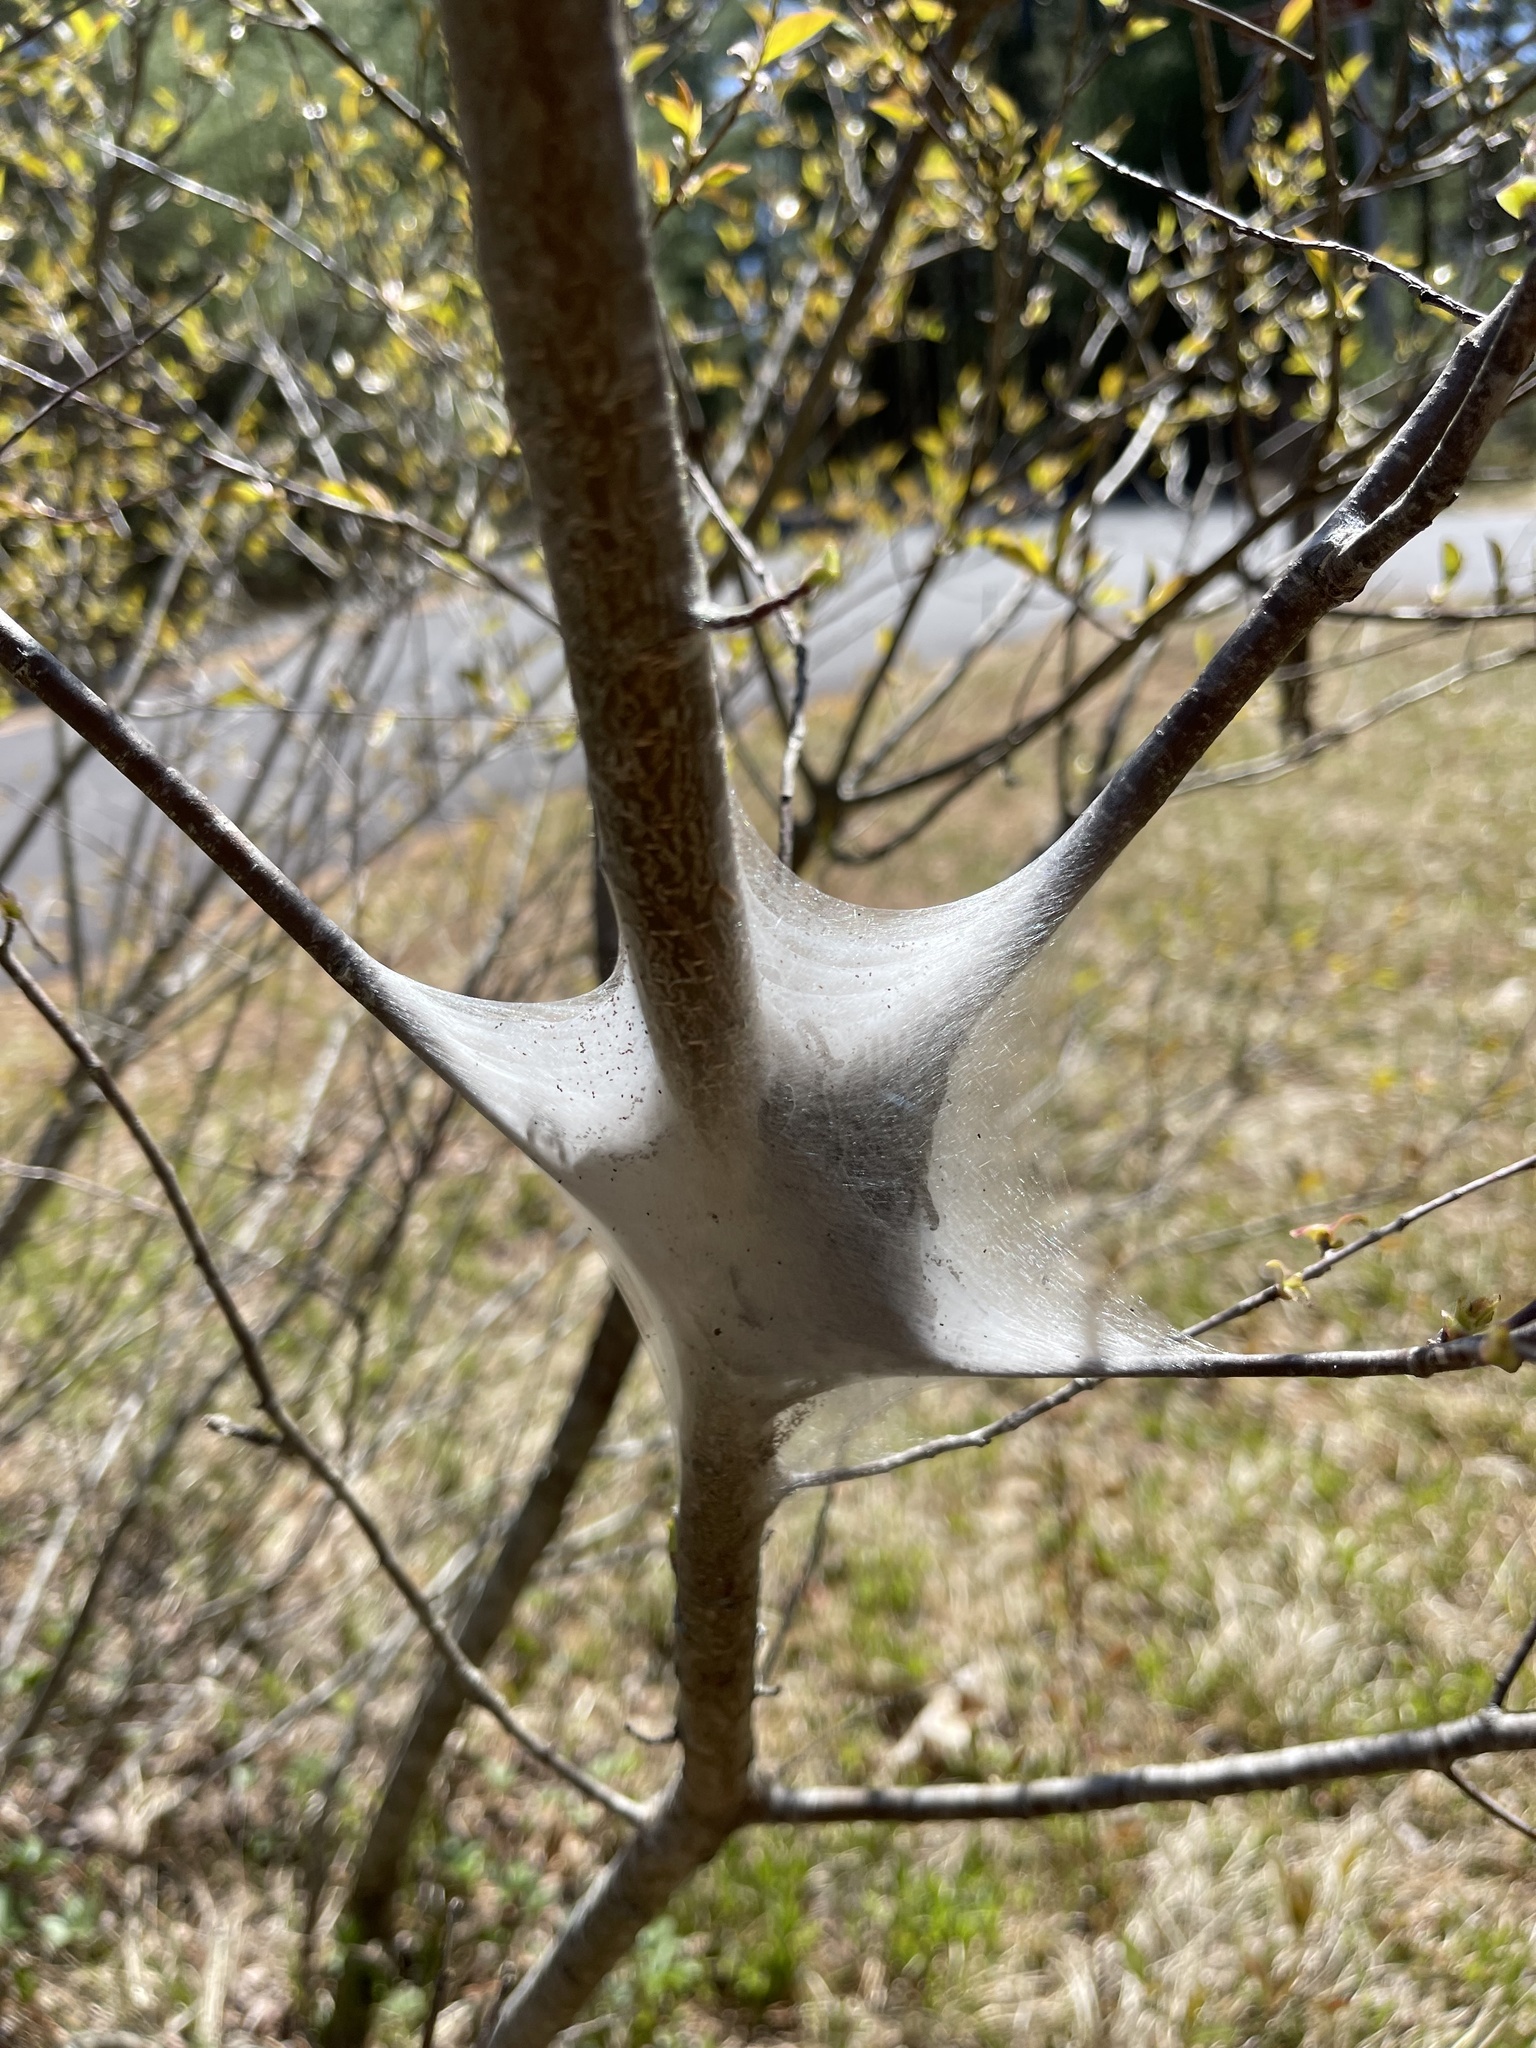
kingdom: Animalia
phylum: Arthropoda
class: Insecta
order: Lepidoptera
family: Lasiocampidae
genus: Malacosoma
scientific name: Malacosoma americana
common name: Eastern tent caterpillar moth
